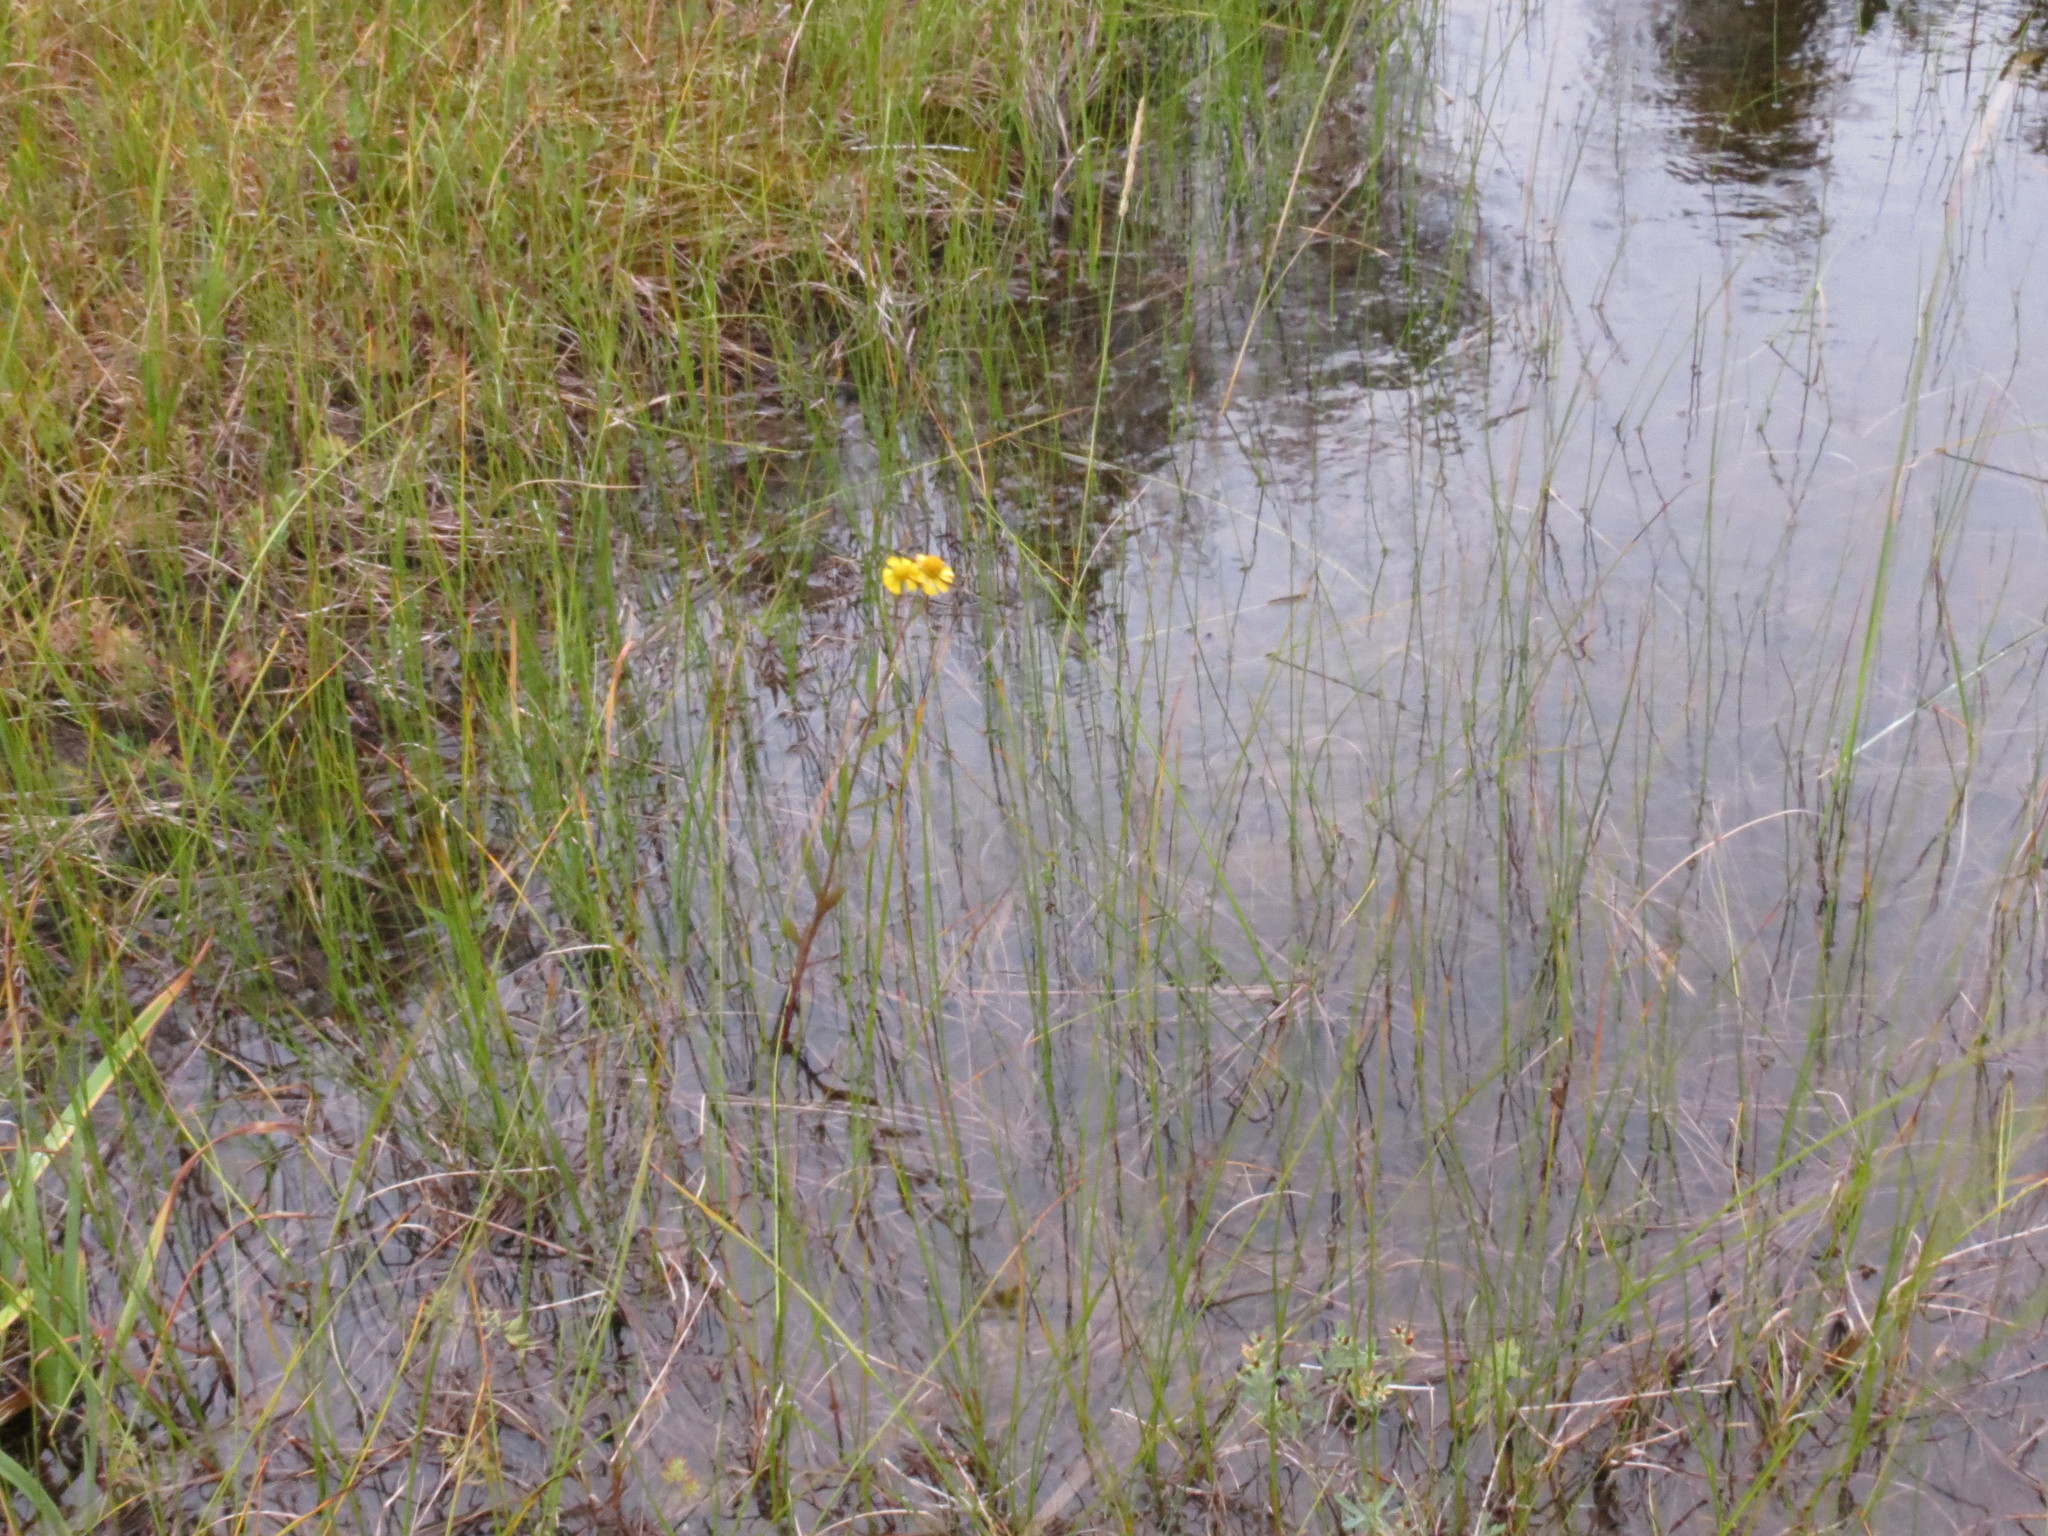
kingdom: Plantae
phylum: Tracheophyta
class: Magnoliopsida
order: Asterales
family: Asteraceae
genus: Helenium
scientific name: Helenium autumnale
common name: Sneezeweed
